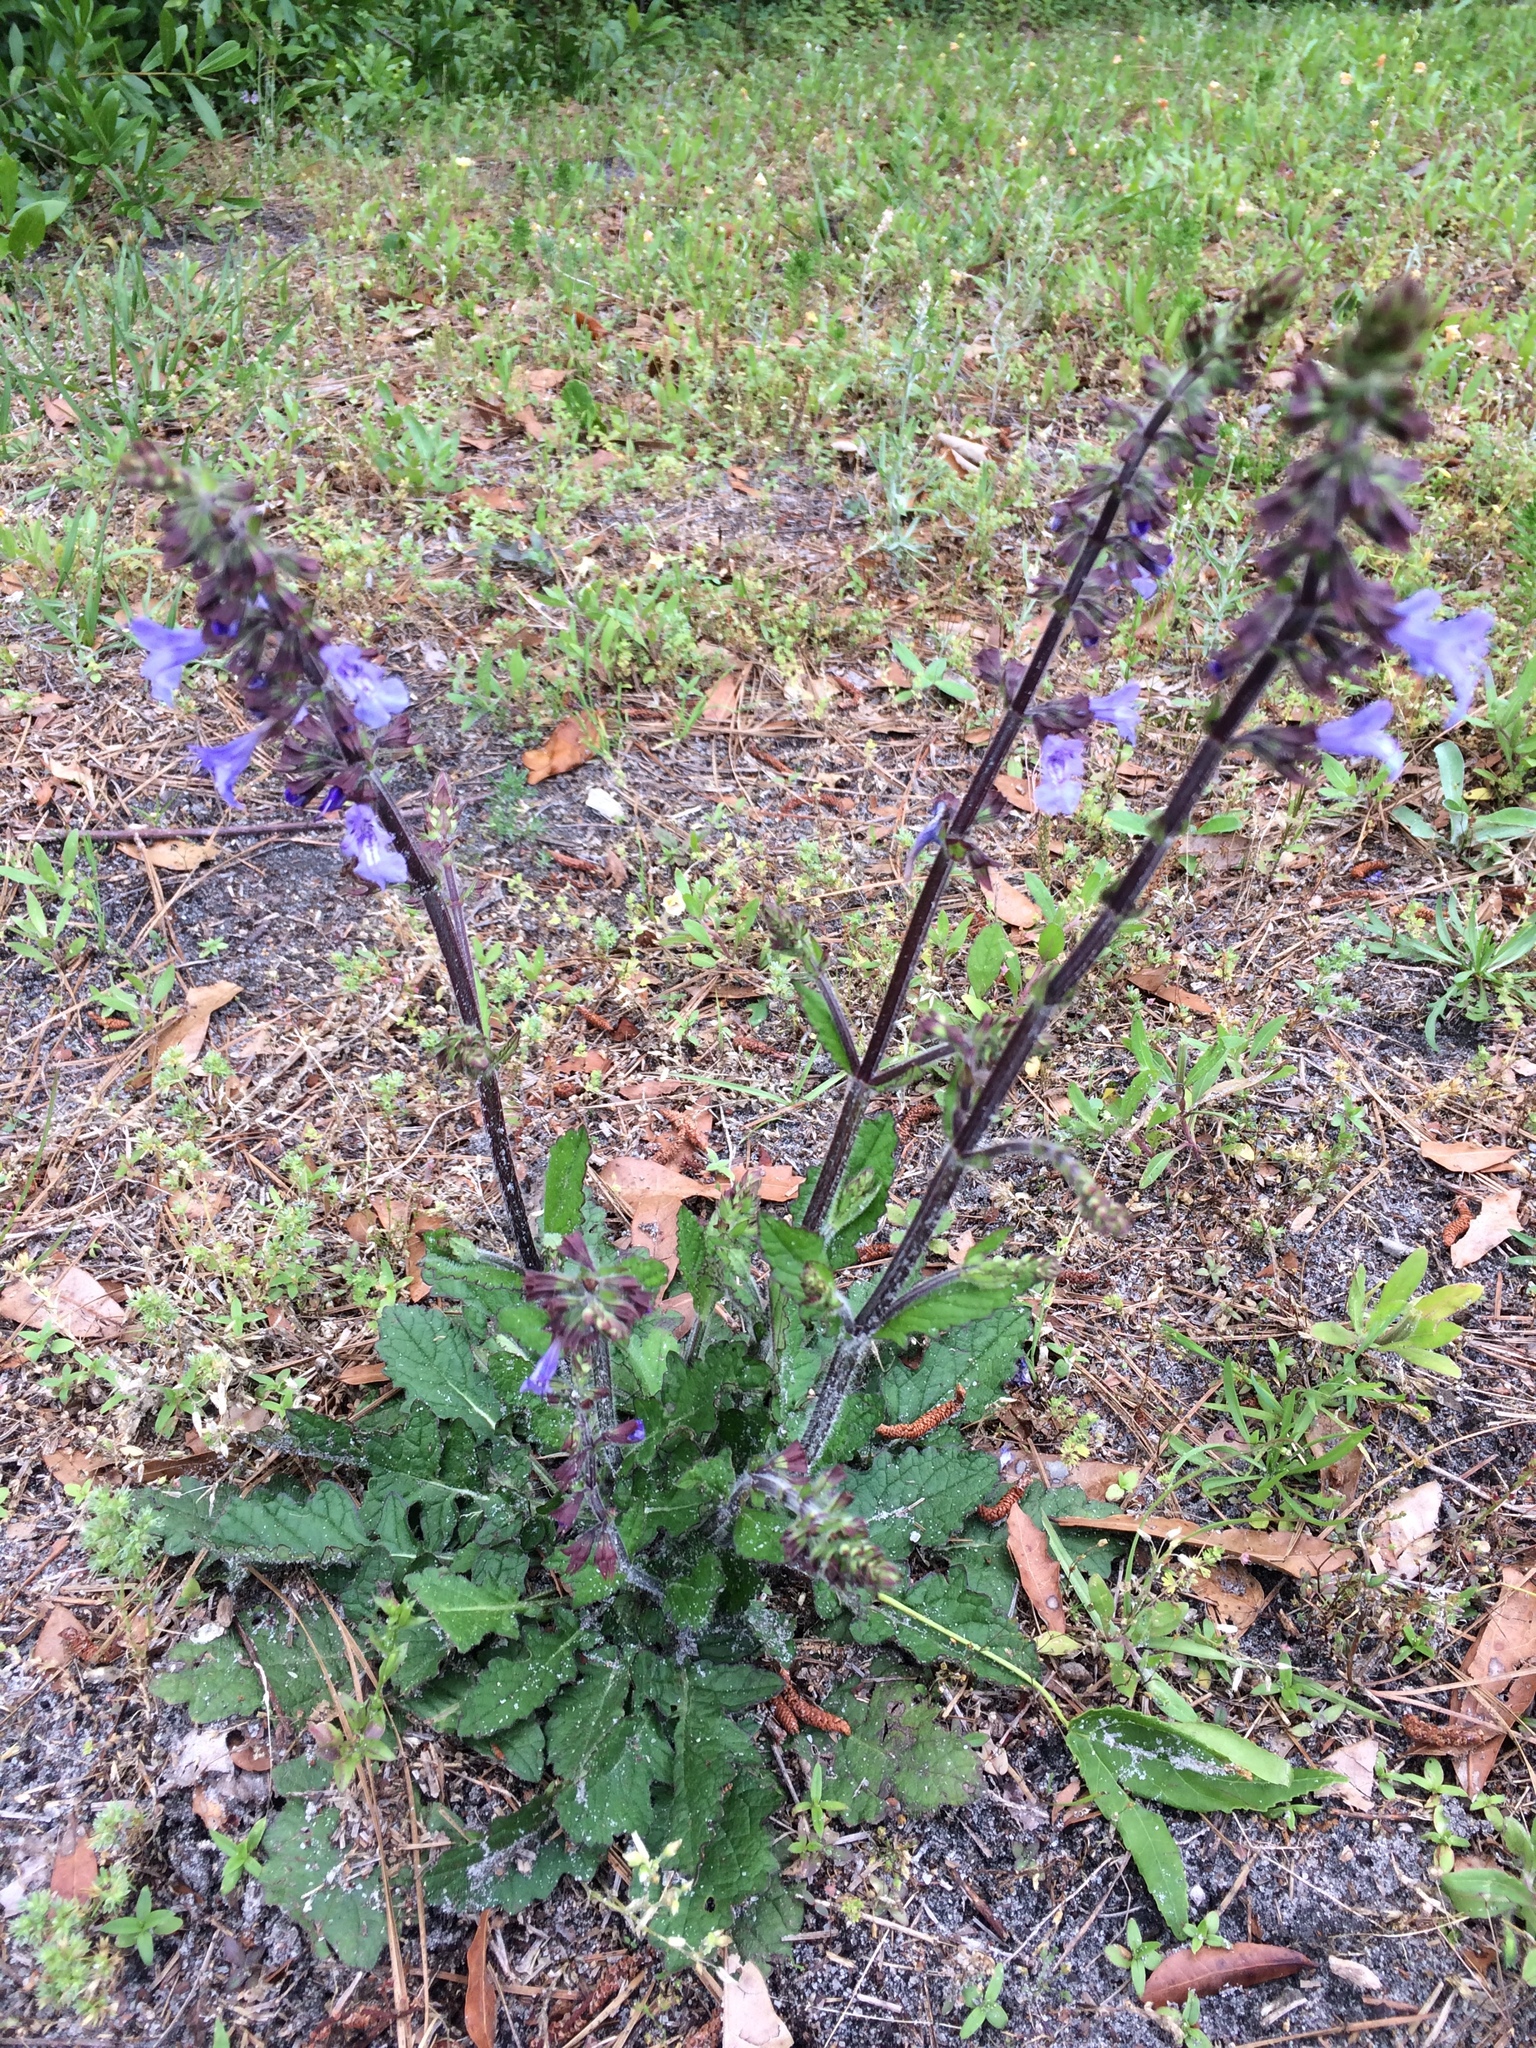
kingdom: Plantae
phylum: Tracheophyta
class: Magnoliopsida
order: Lamiales
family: Lamiaceae
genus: Salvia
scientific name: Salvia lyrata
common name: Cancerweed
